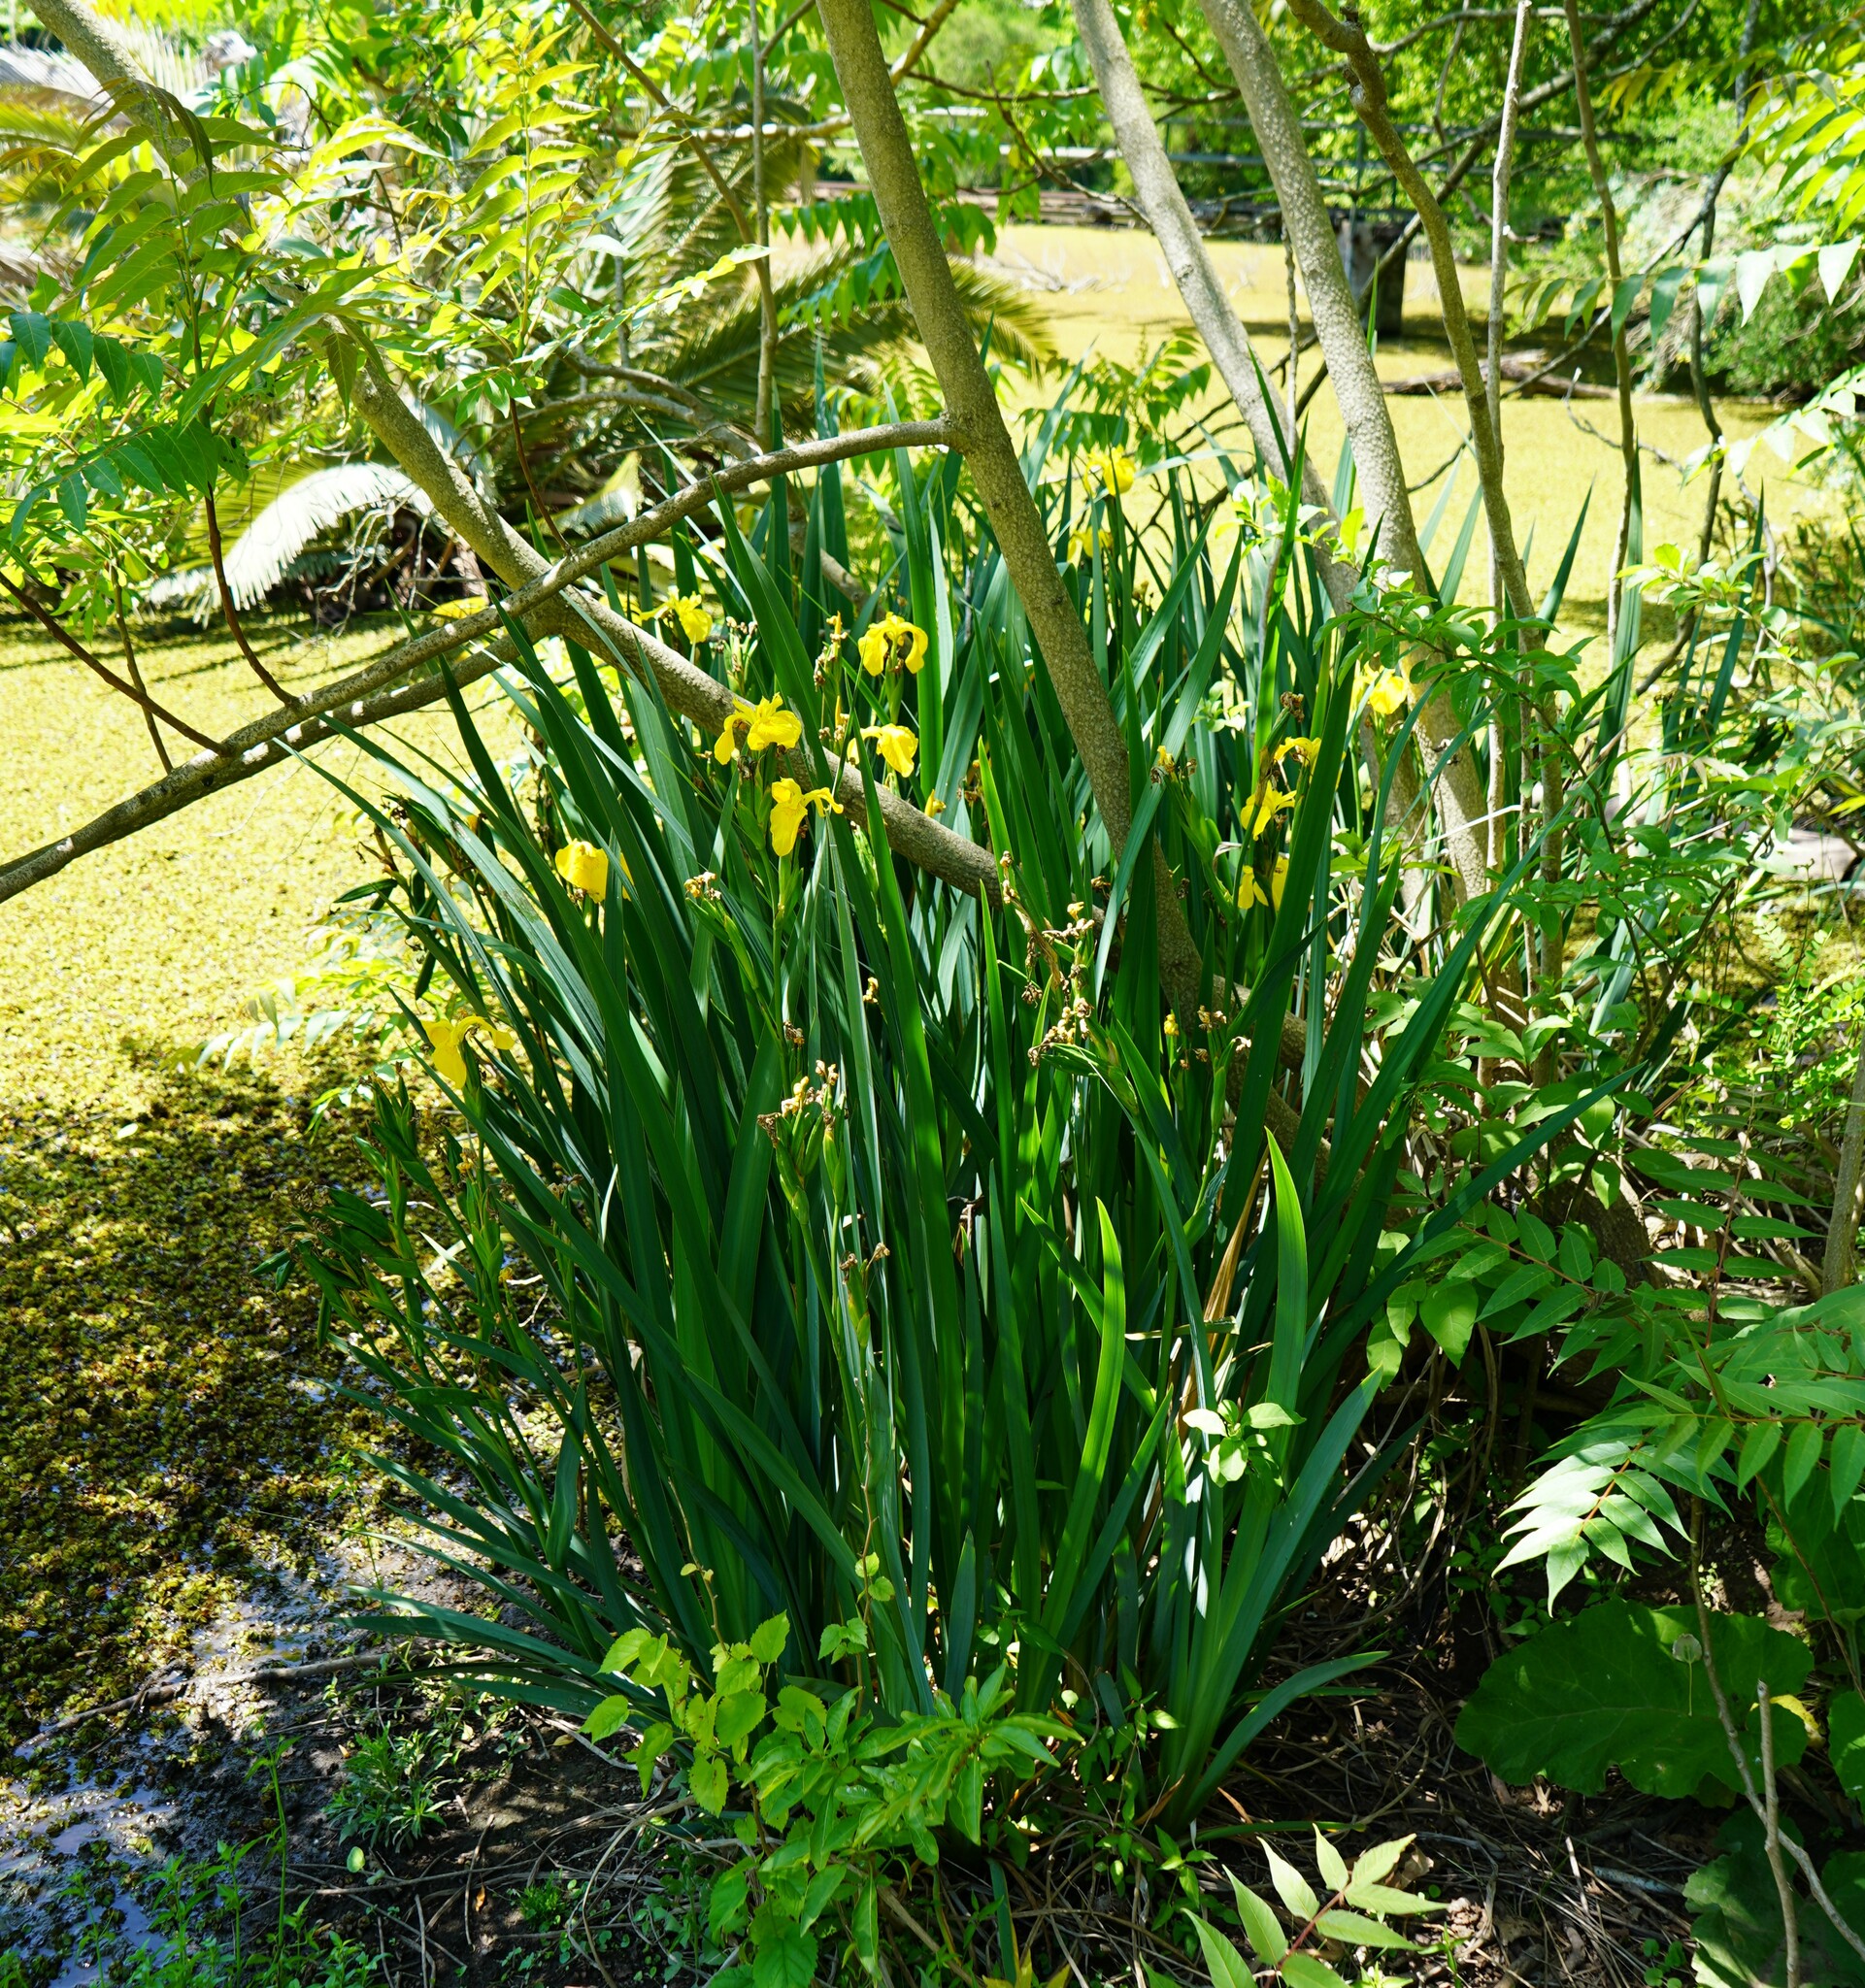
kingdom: Plantae
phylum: Tracheophyta
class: Liliopsida
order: Asparagales
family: Iridaceae
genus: Iris
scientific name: Iris pseudacorus
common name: Yellow flag
